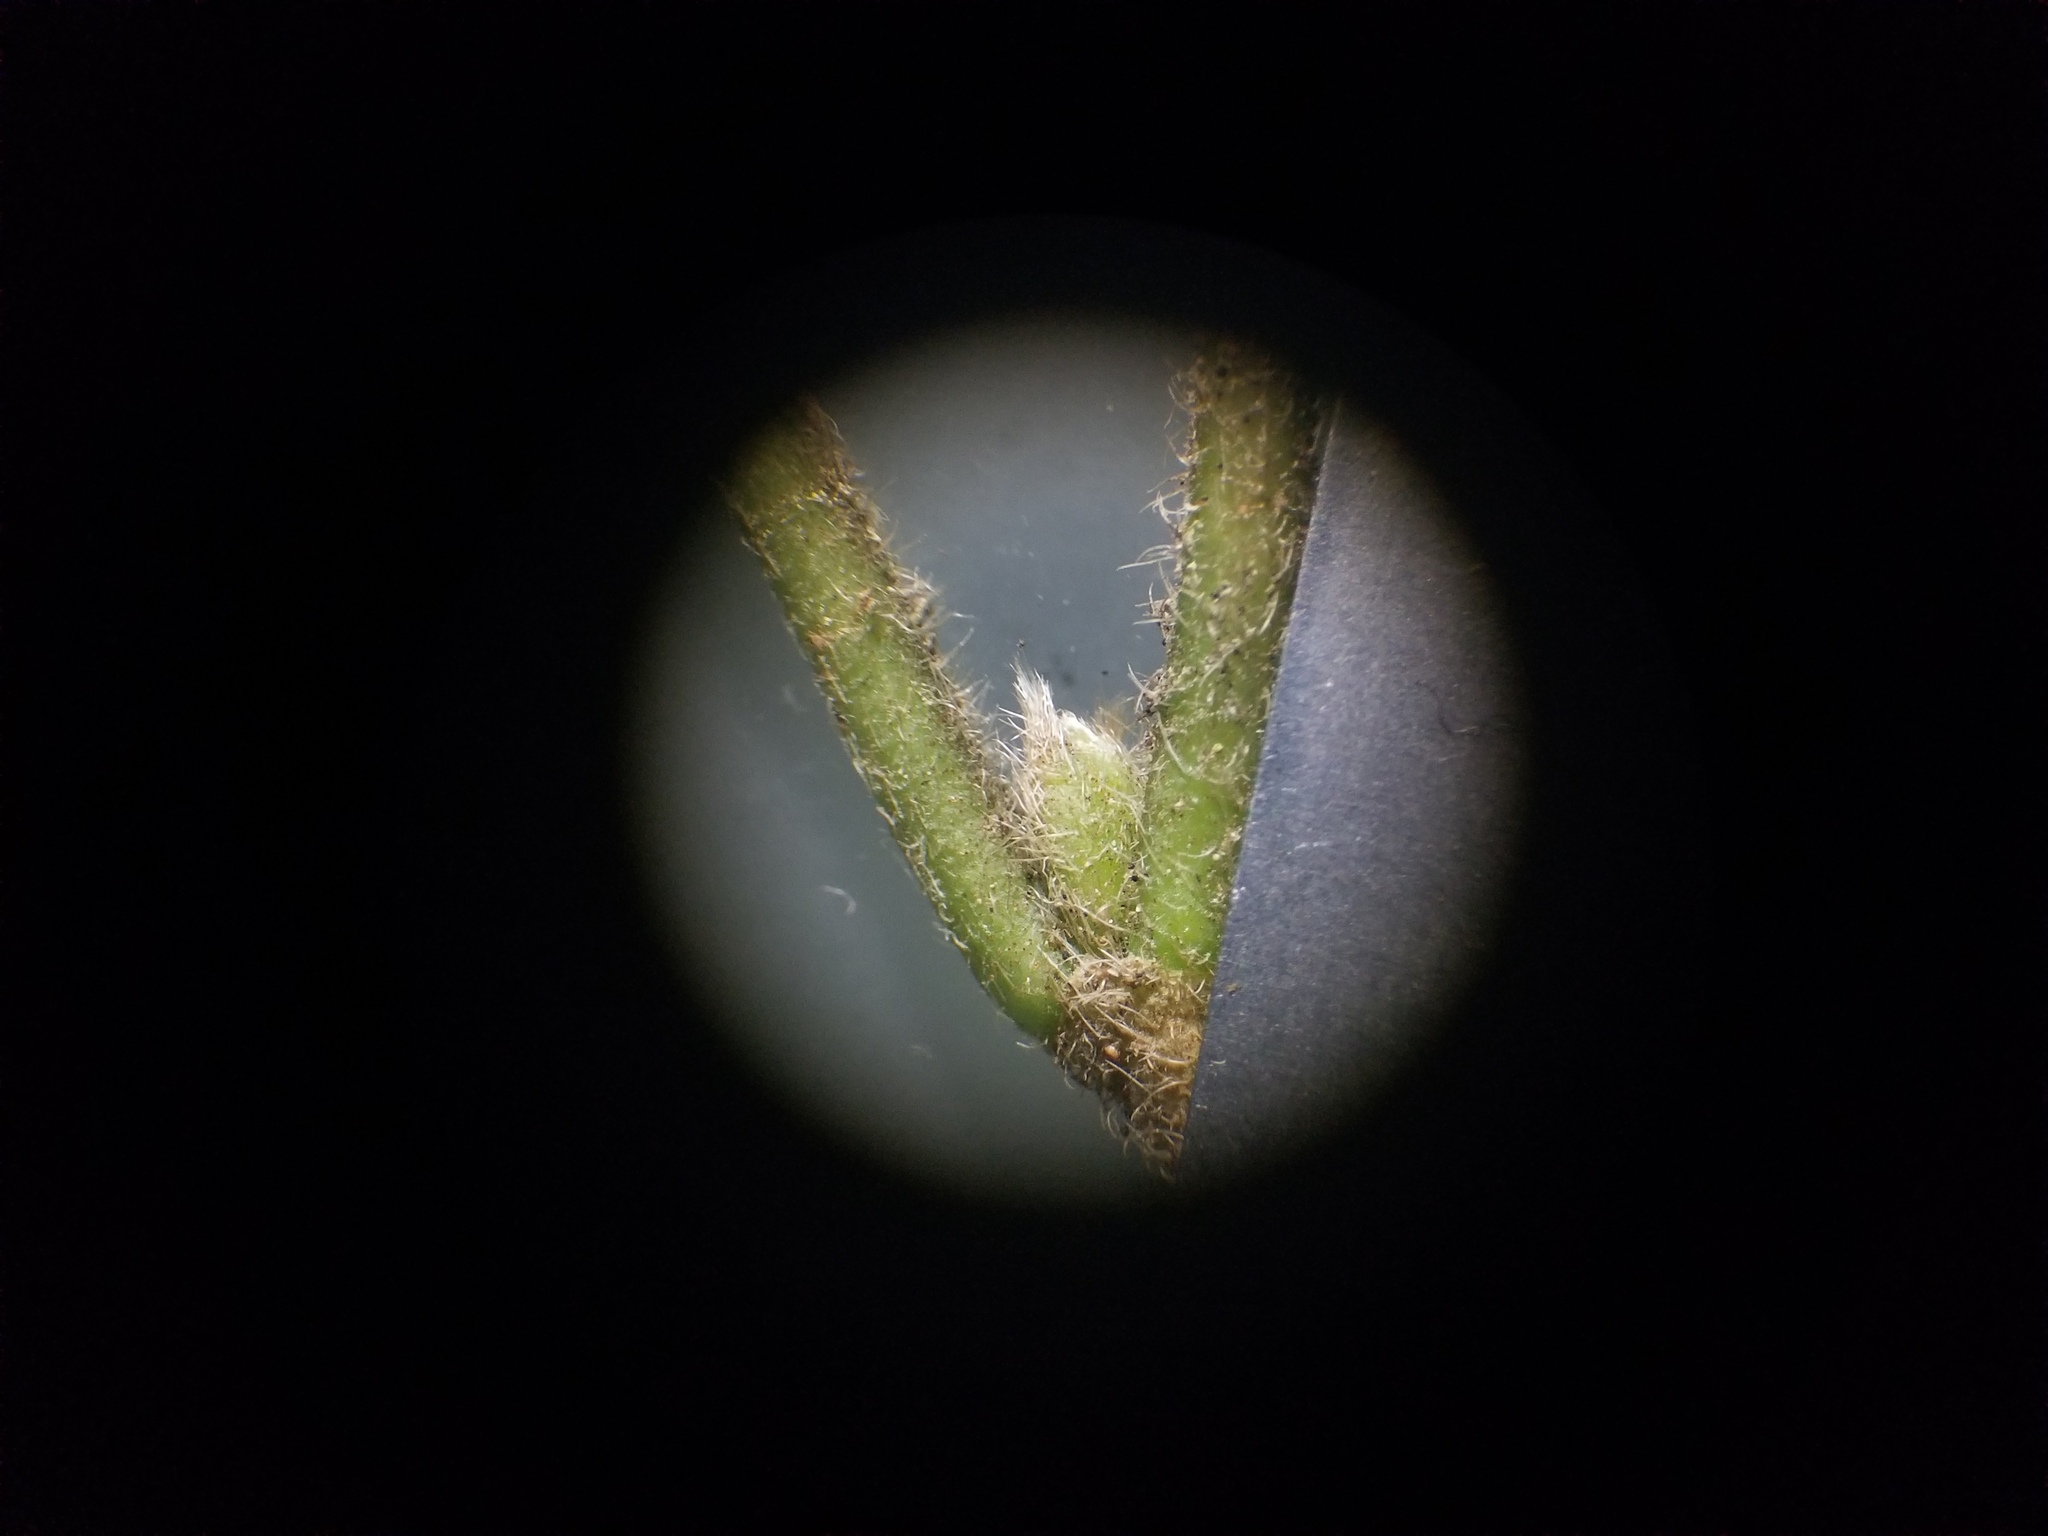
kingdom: Plantae
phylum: Tracheophyta
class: Magnoliopsida
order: Dipsacales
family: Viburnaceae
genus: Viburnum
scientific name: Viburnum dilatatum
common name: Linden arrowwood
